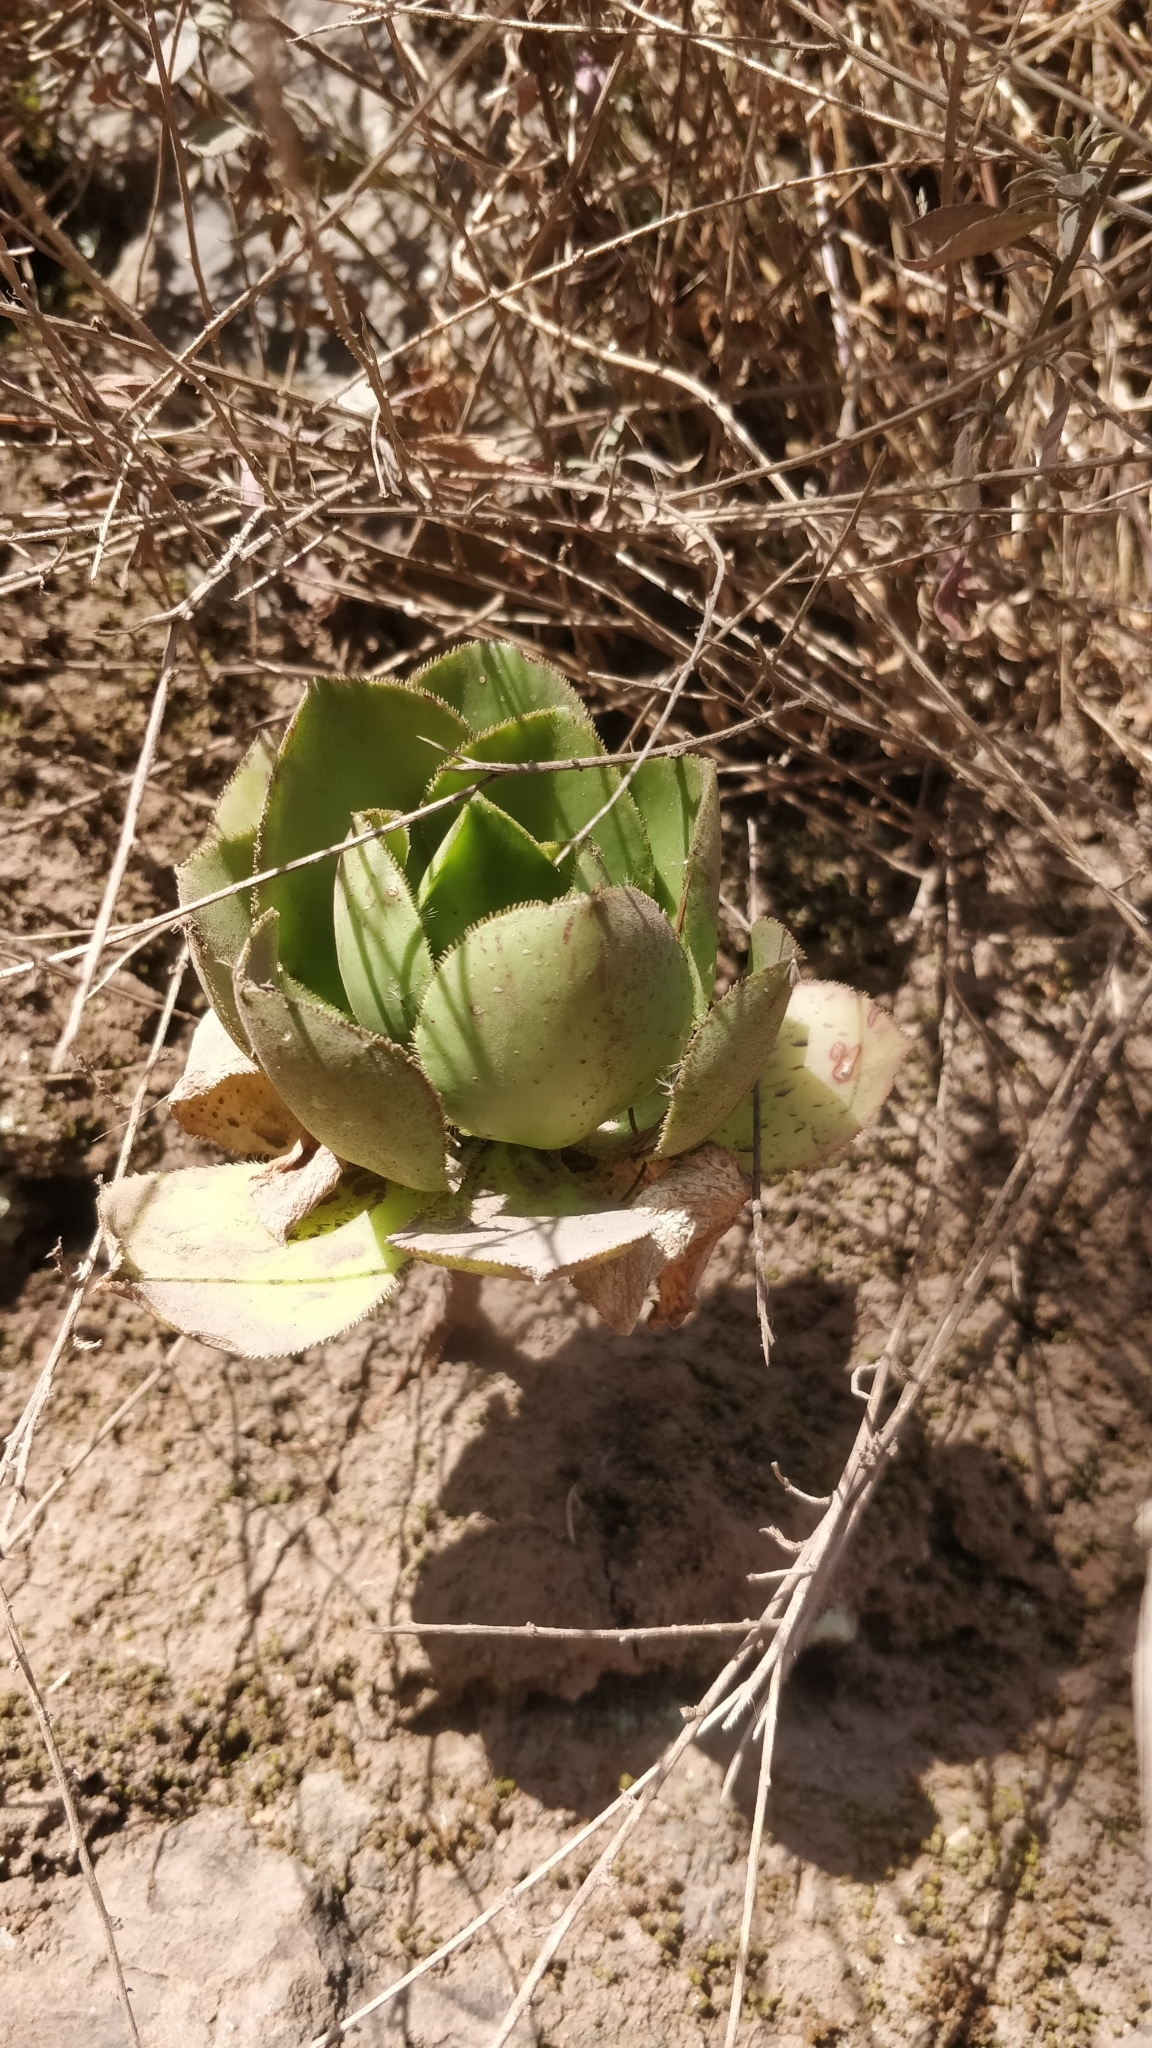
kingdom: Plantae
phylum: Tracheophyta
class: Magnoliopsida
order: Saxifragales
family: Crassulaceae
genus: Aeonium
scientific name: Aeonium glutinosum
